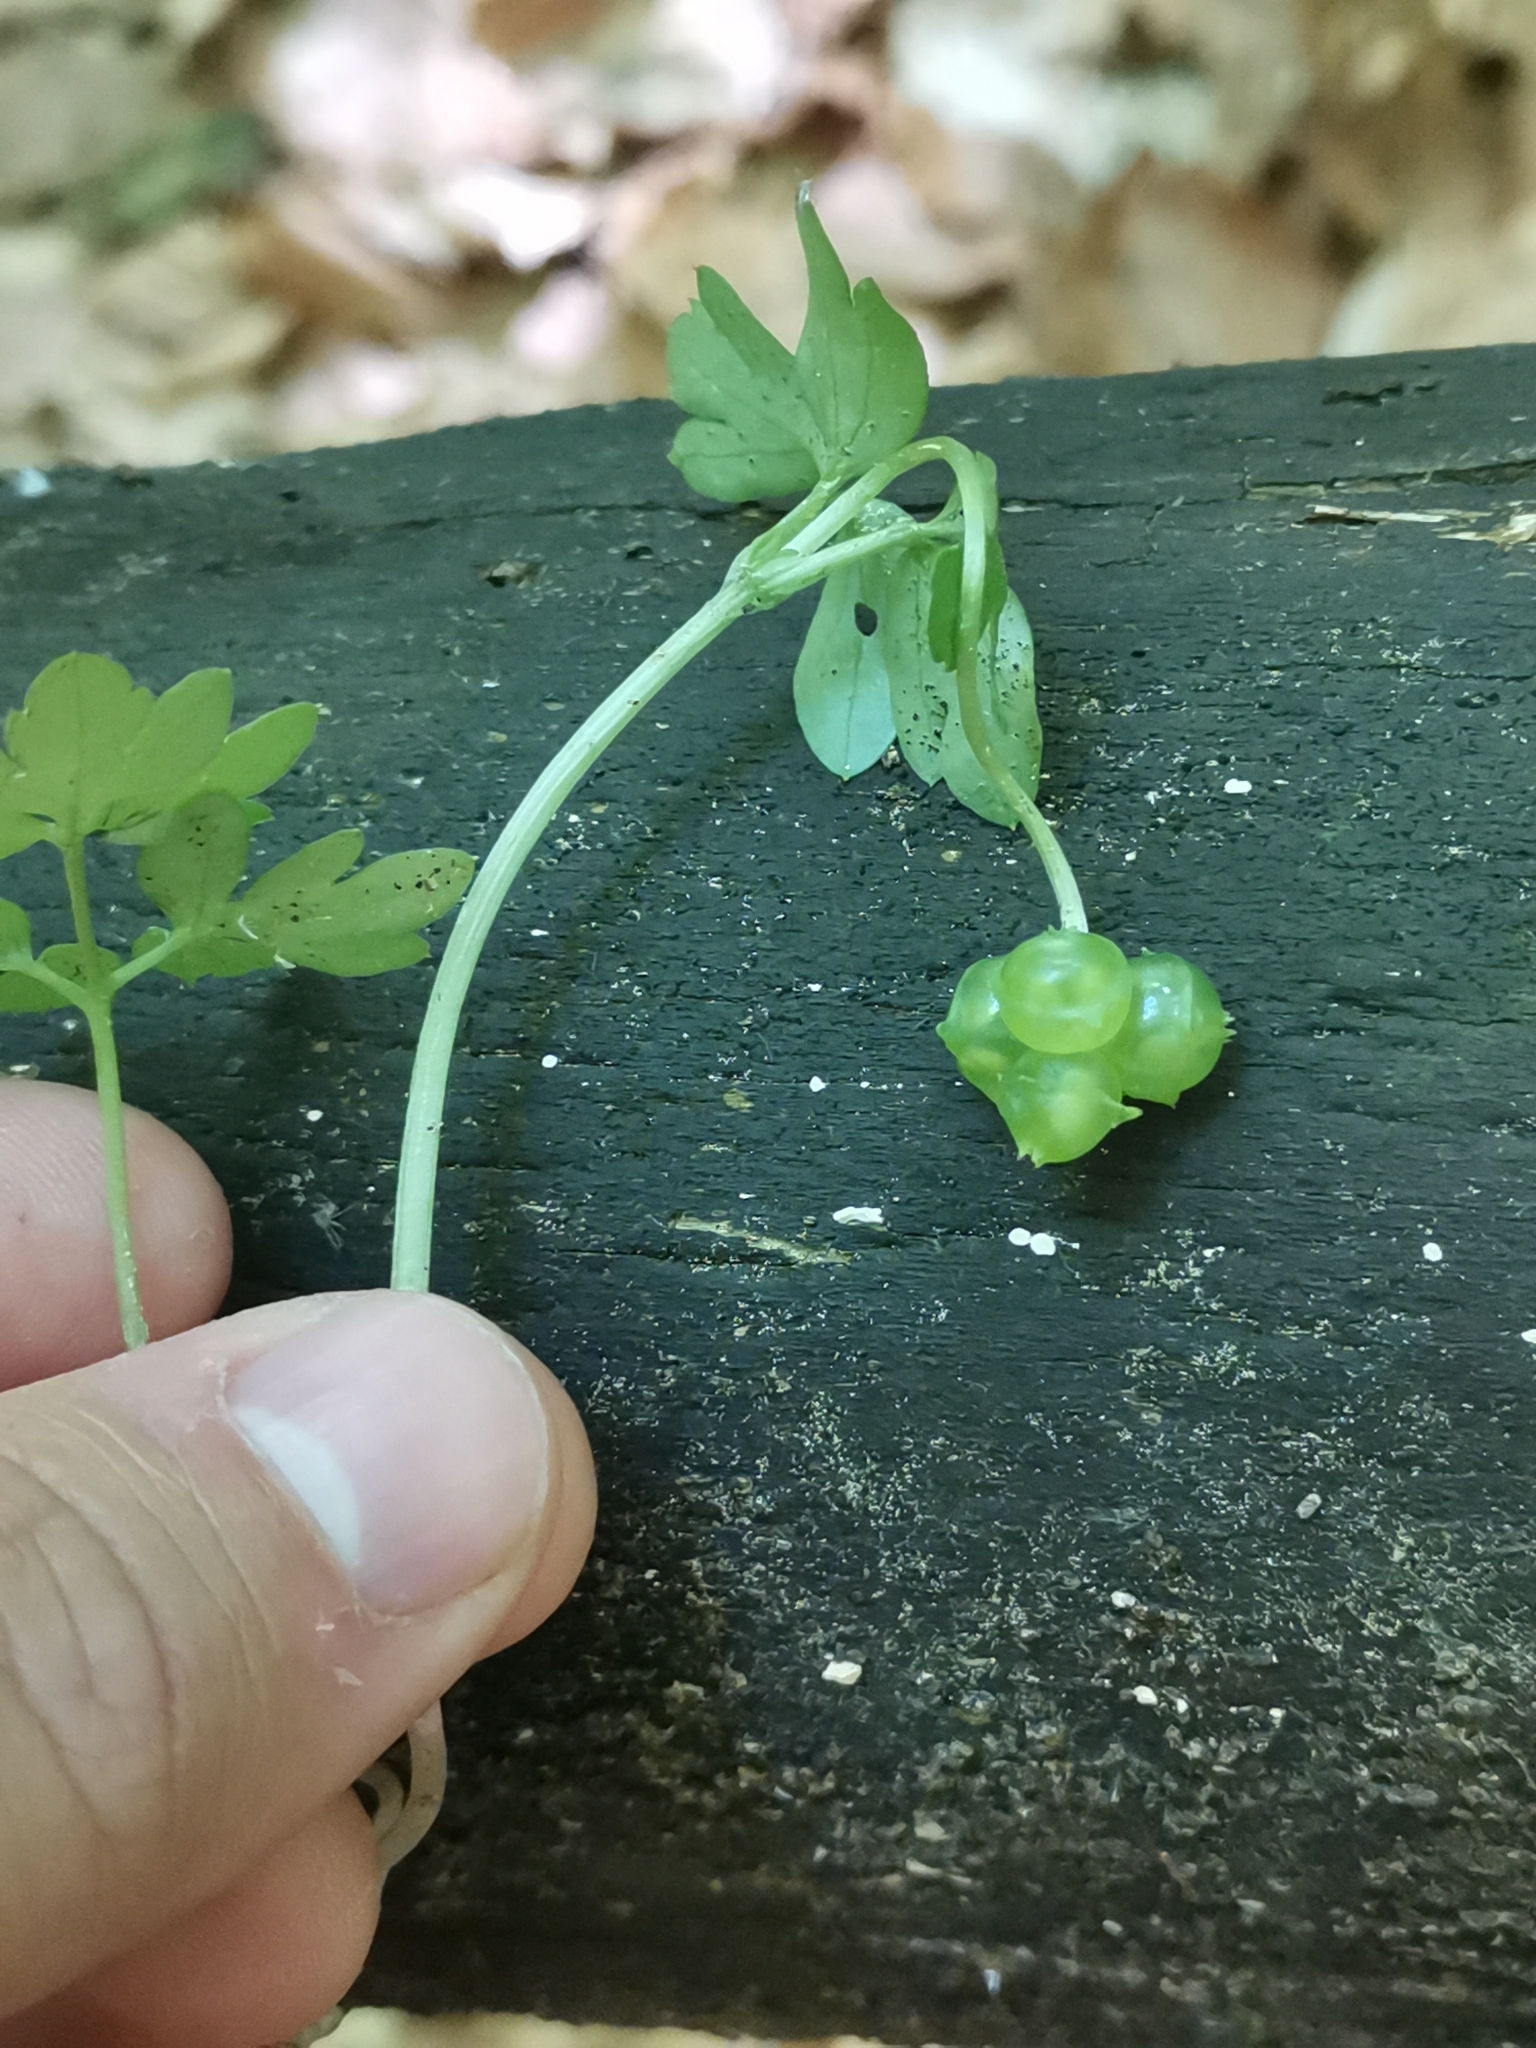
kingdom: Plantae
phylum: Tracheophyta
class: Magnoliopsida
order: Dipsacales
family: Viburnaceae
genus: Adoxa
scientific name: Adoxa moschatellina
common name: Moschatel
